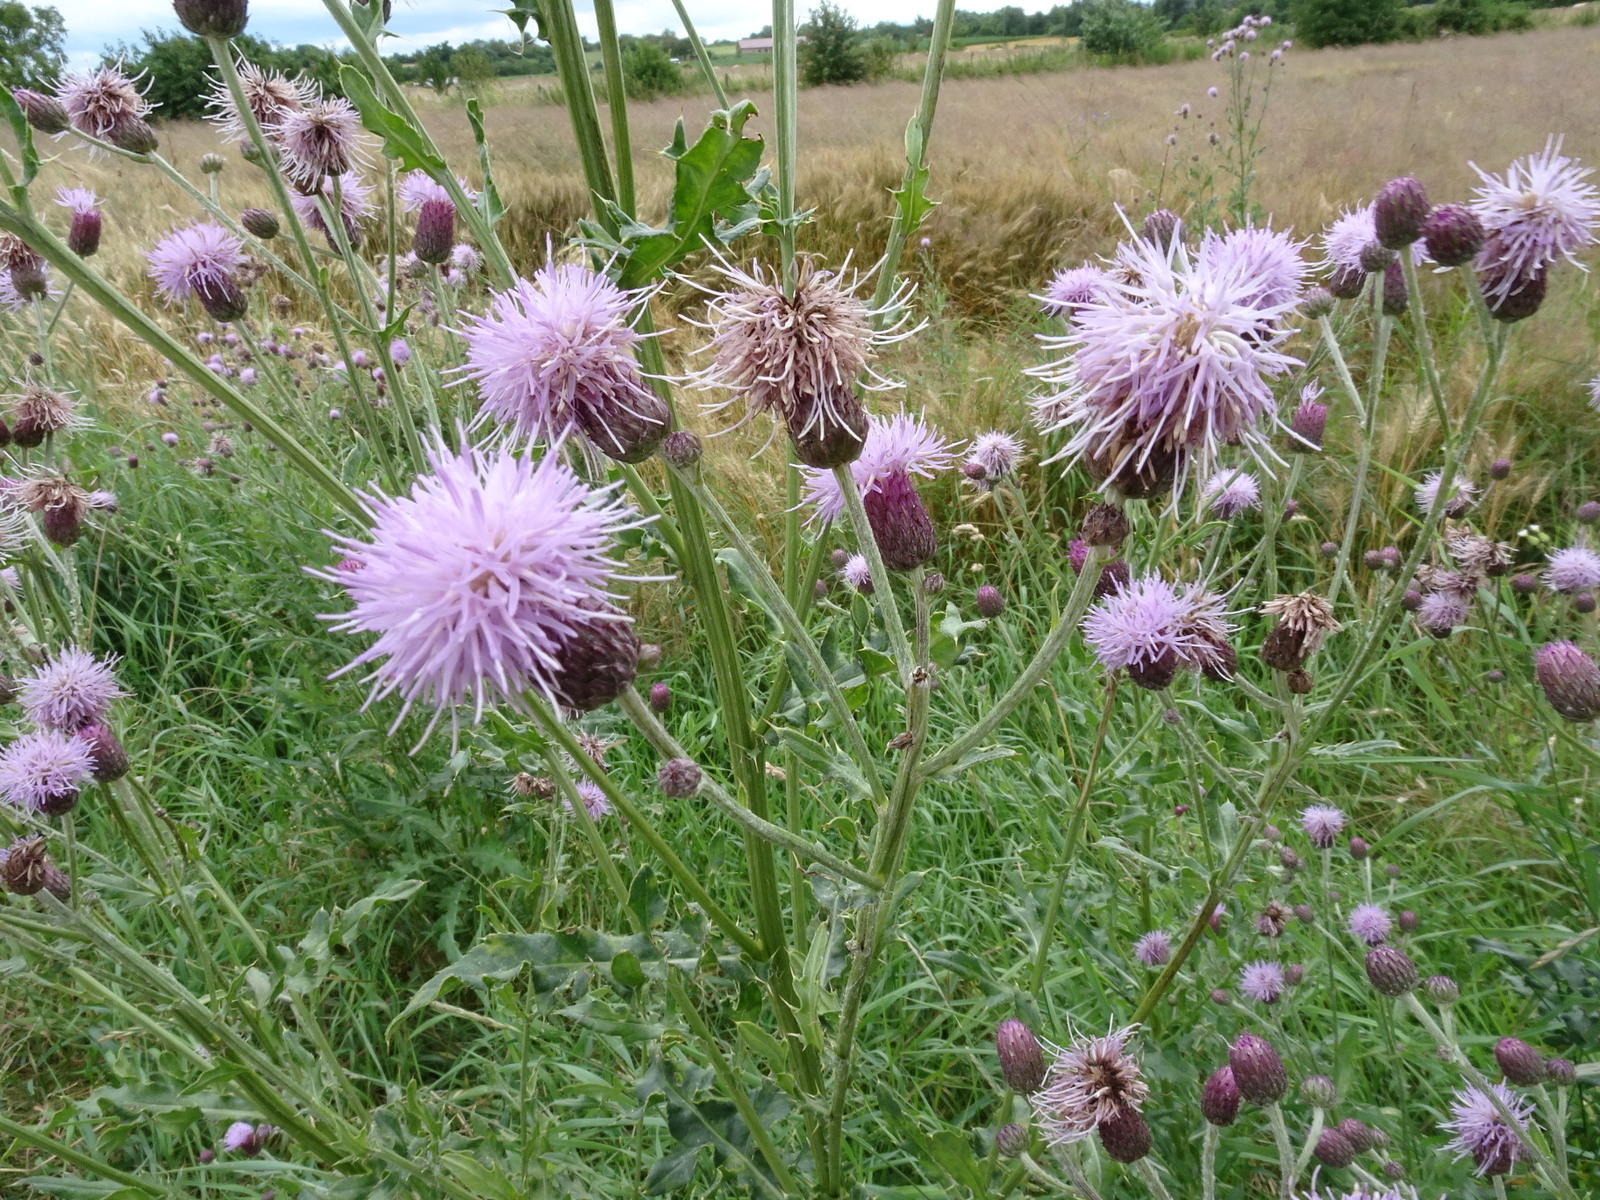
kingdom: Plantae
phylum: Tracheophyta
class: Magnoliopsida
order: Asterales
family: Asteraceae
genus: Cirsium
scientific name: Cirsium arvense
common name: Creeping thistle
